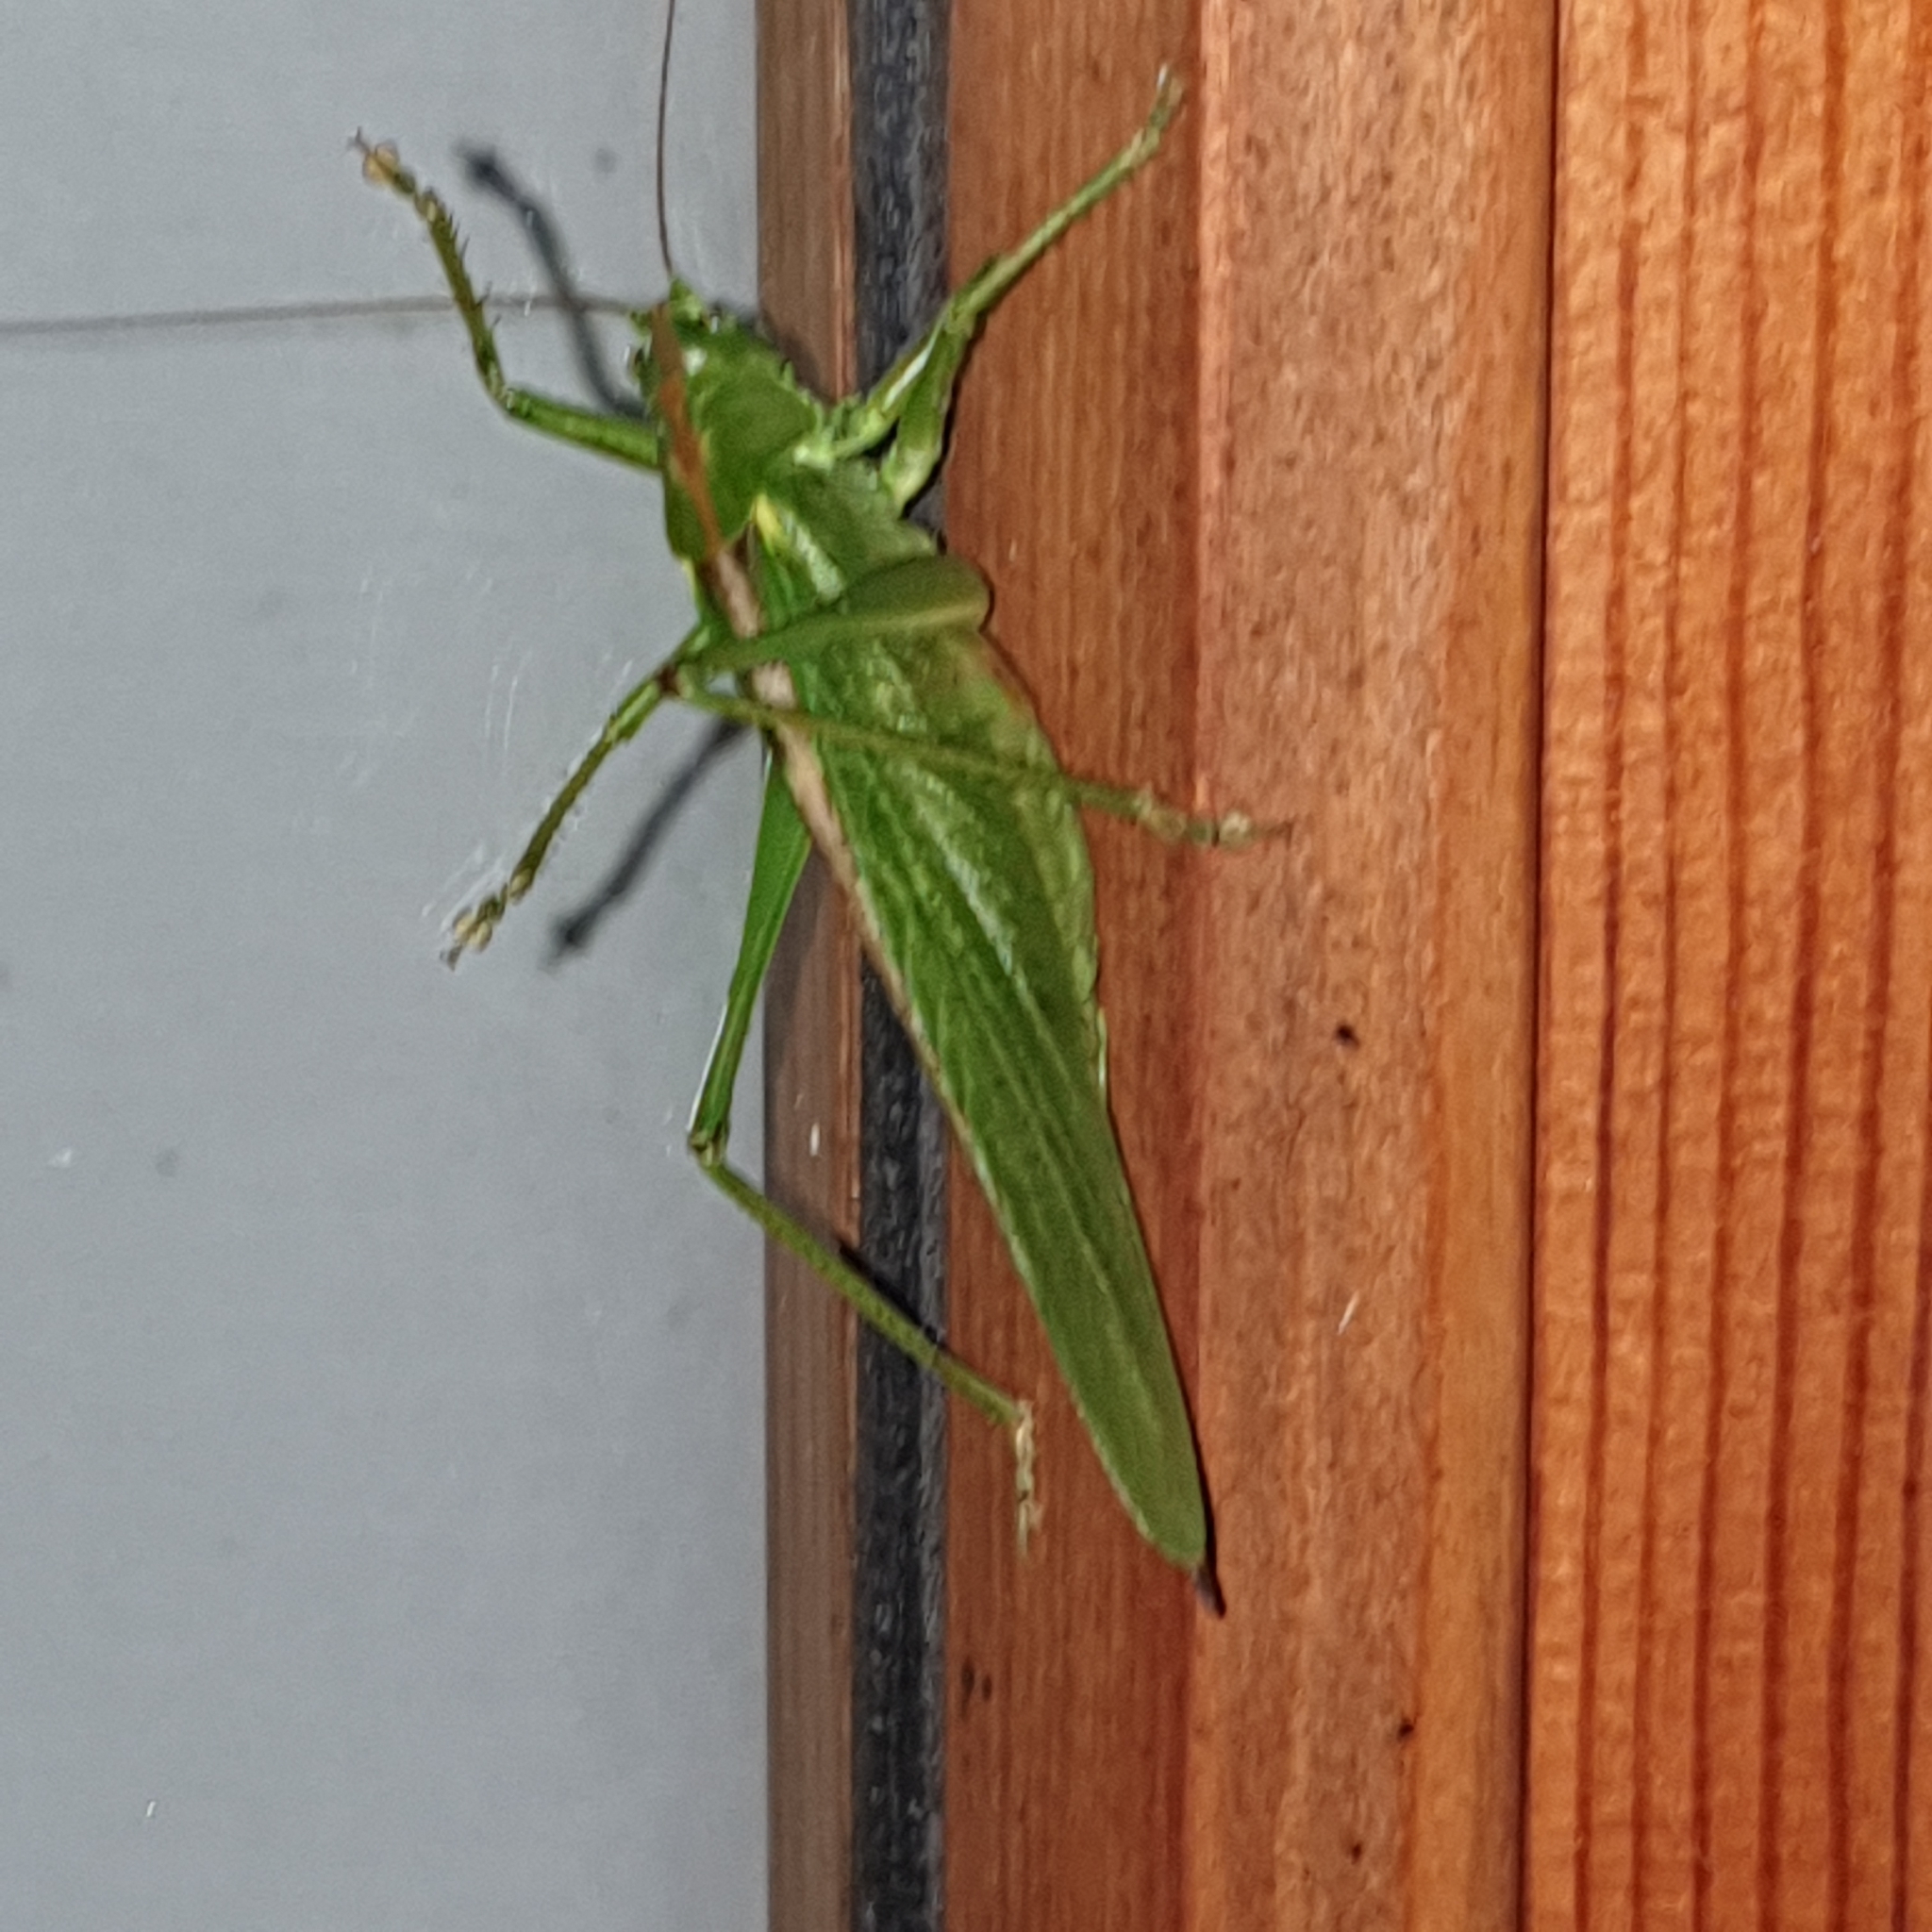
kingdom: Animalia
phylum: Arthropoda
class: Insecta
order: Orthoptera
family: Tettigoniidae
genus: Tettigonia
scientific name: Tettigonia viridissima
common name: Great green bush-cricket
